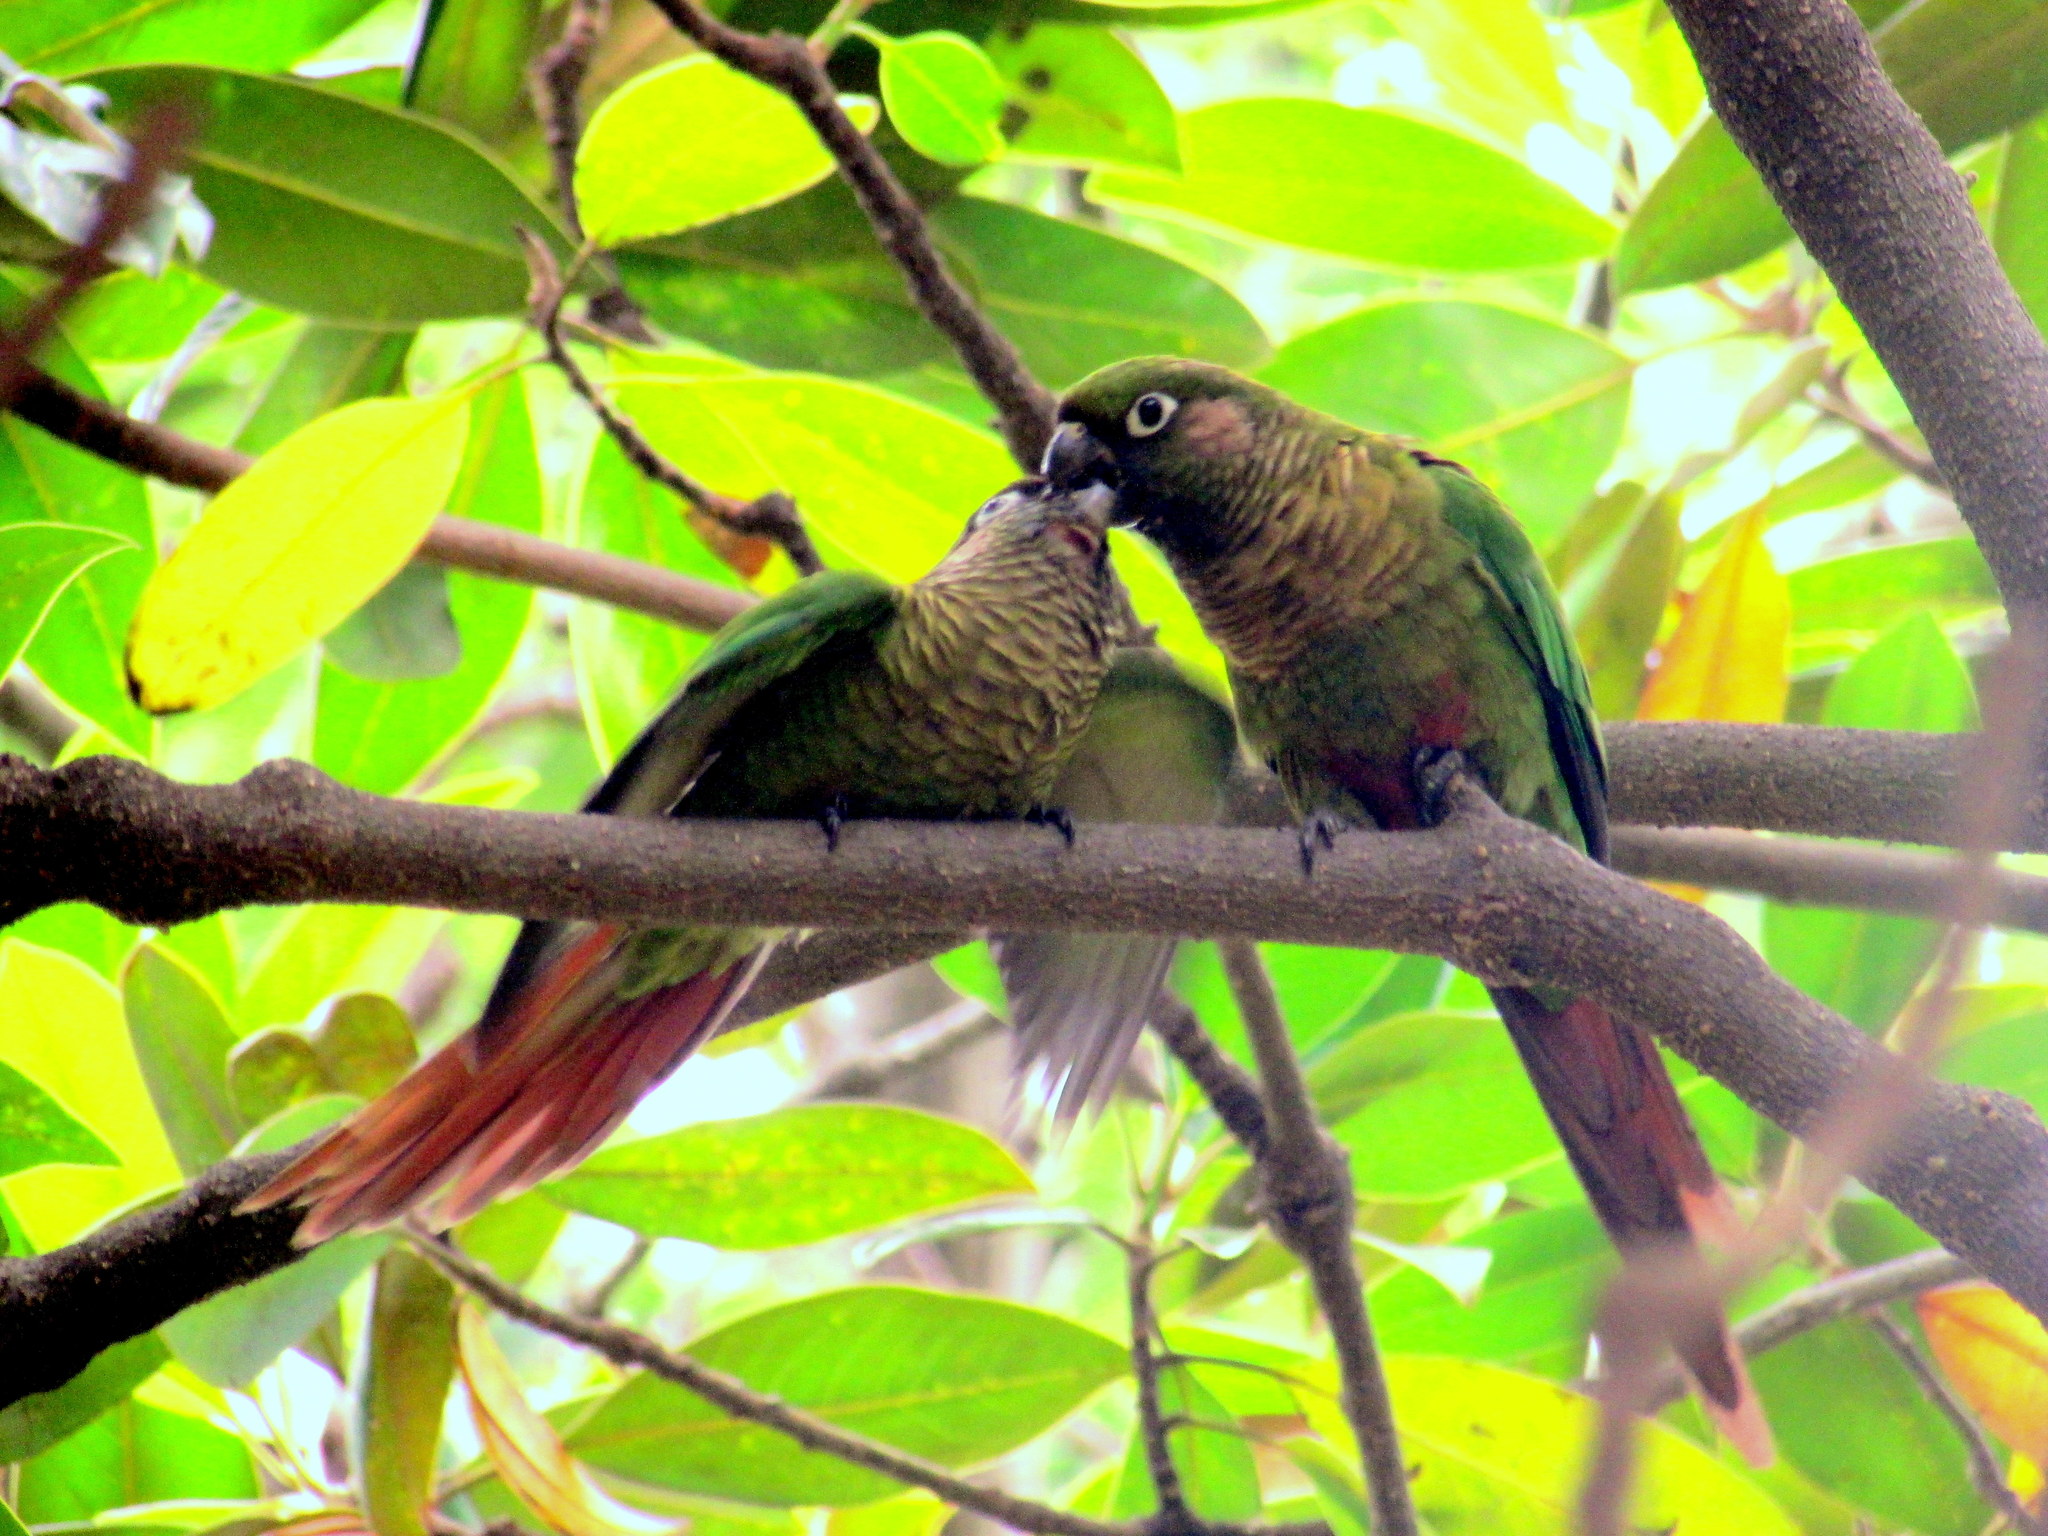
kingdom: Animalia
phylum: Chordata
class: Aves
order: Psittaciformes
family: Psittacidae
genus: Pyrrhura
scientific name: Pyrrhura frontalis
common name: Maroon-bellied parakeet
